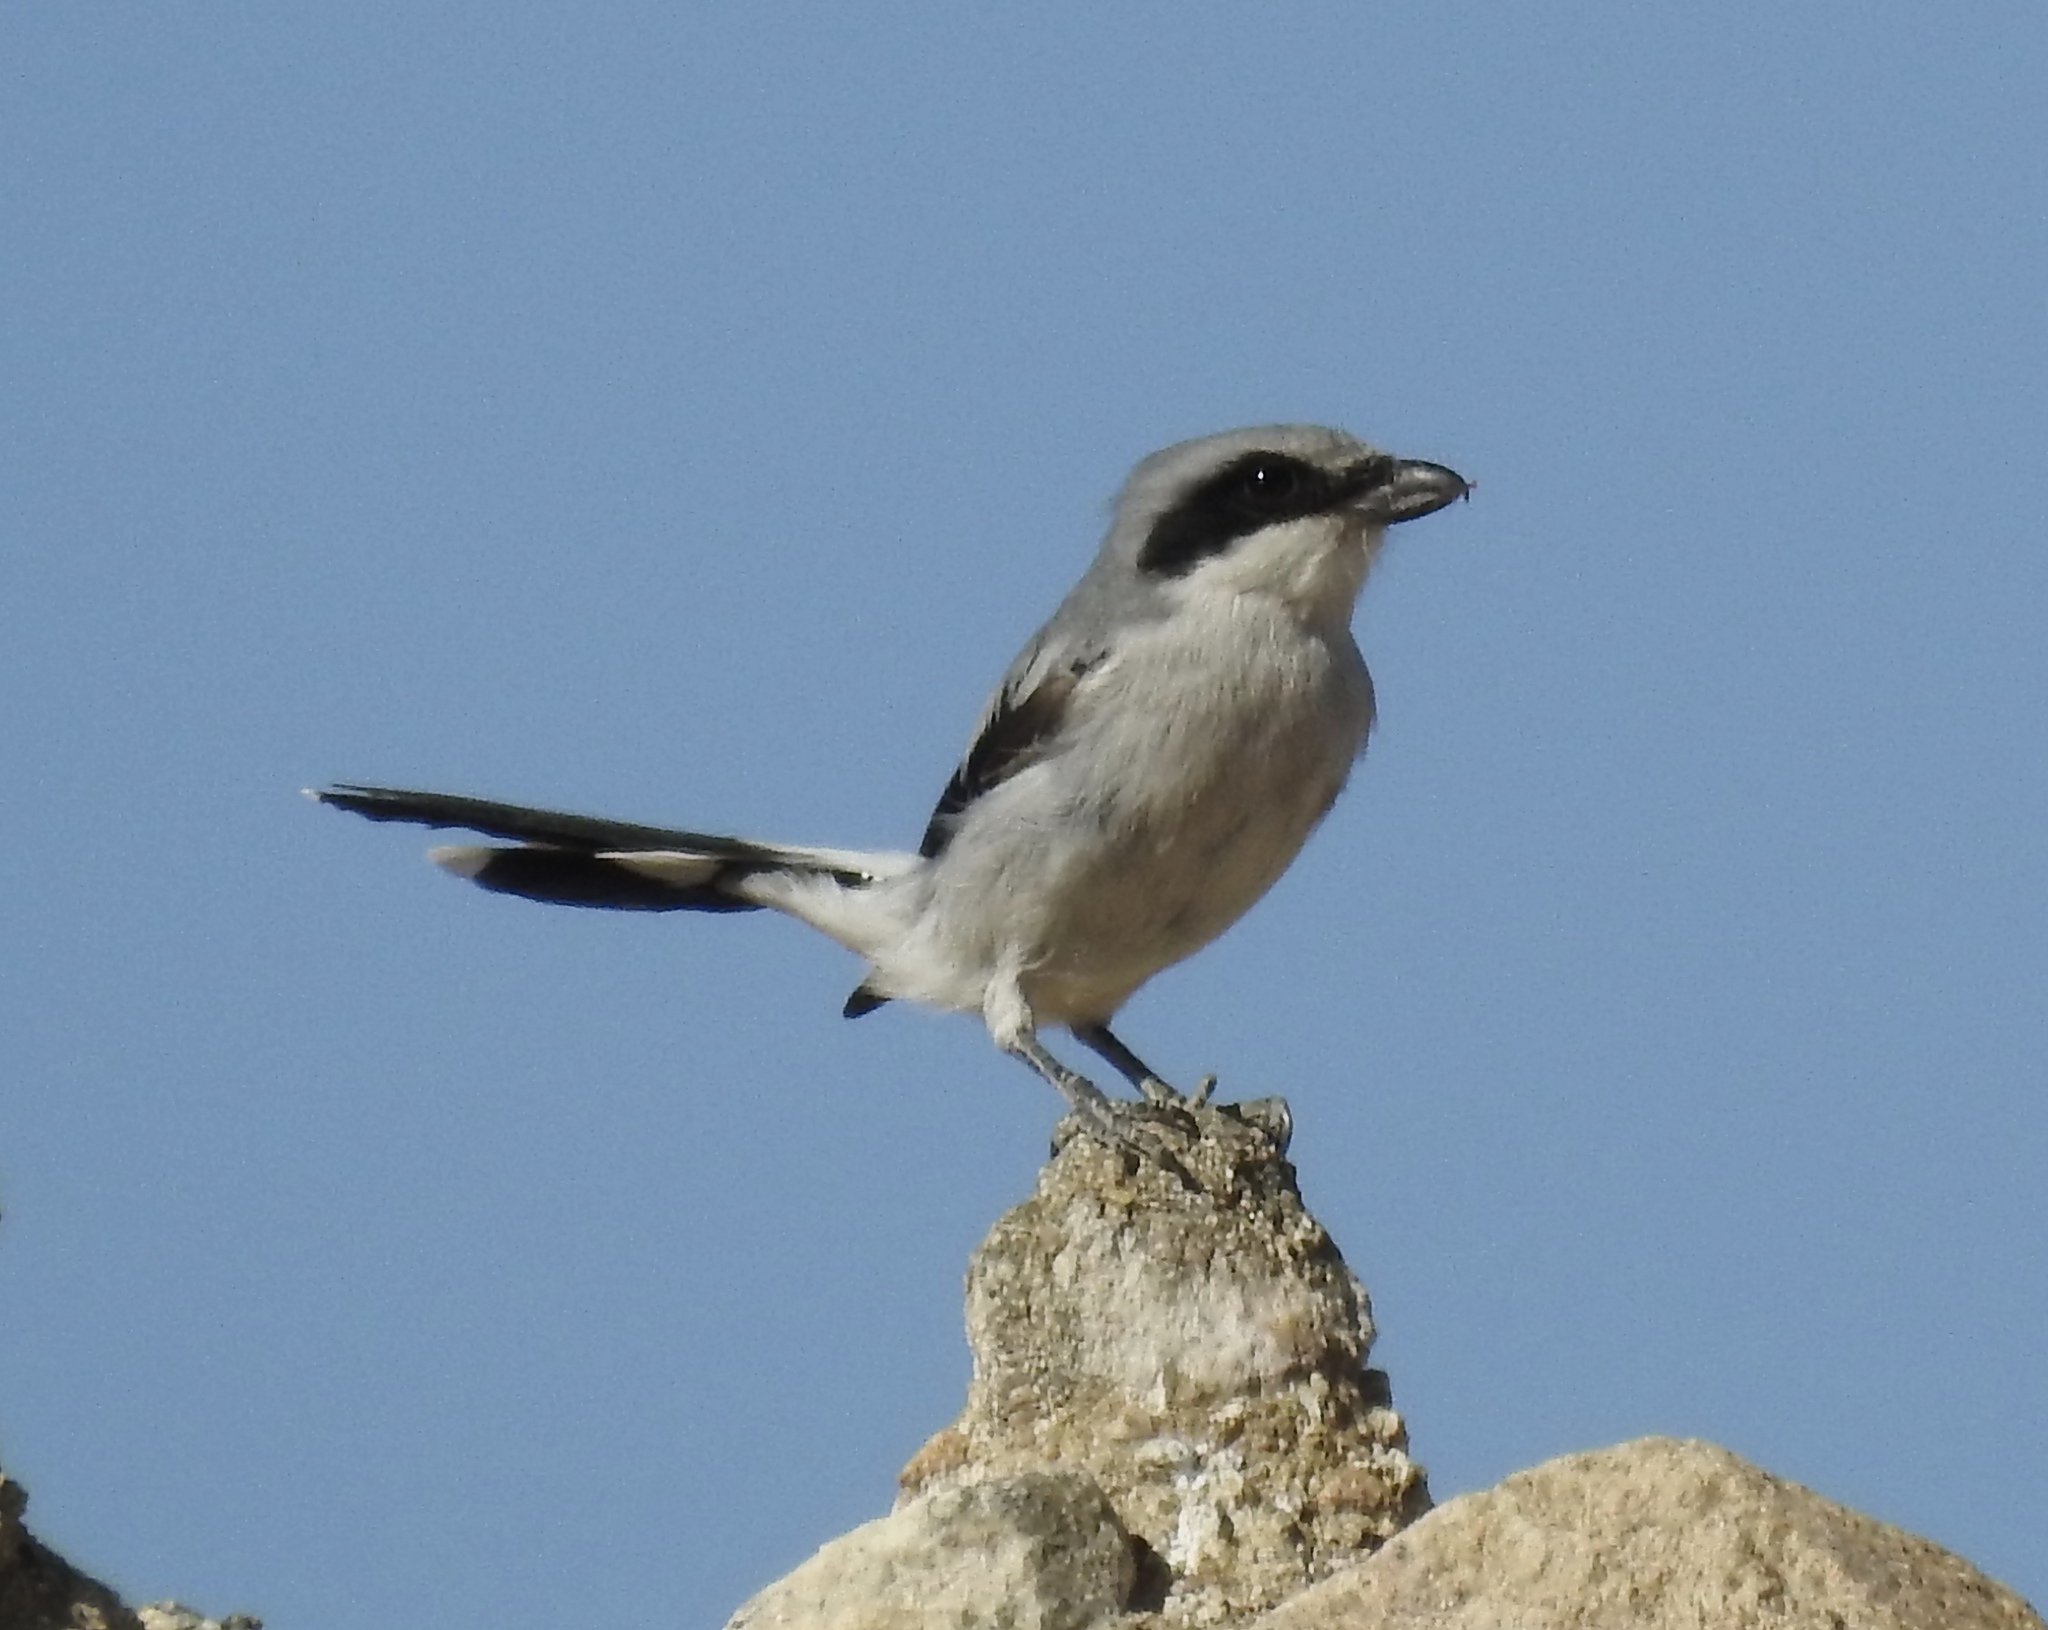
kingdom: Animalia
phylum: Chordata
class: Aves
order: Passeriformes
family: Laniidae
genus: Lanius
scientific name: Lanius ludovicianus
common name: Loggerhead shrike
